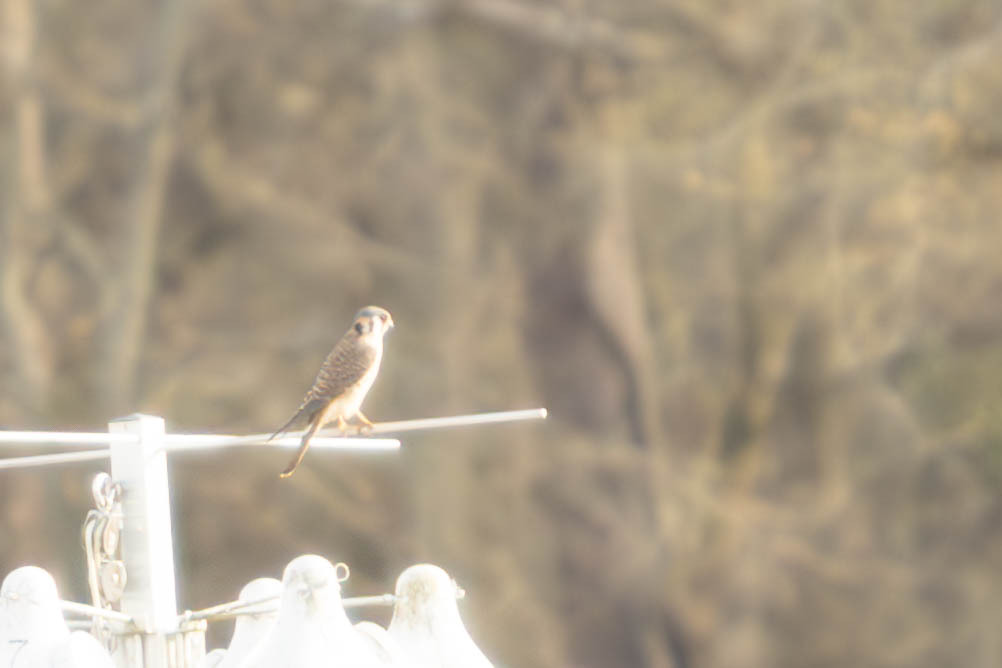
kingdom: Animalia
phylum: Chordata
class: Aves
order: Falconiformes
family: Falconidae
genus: Falco
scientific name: Falco sparverius
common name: American kestrel
